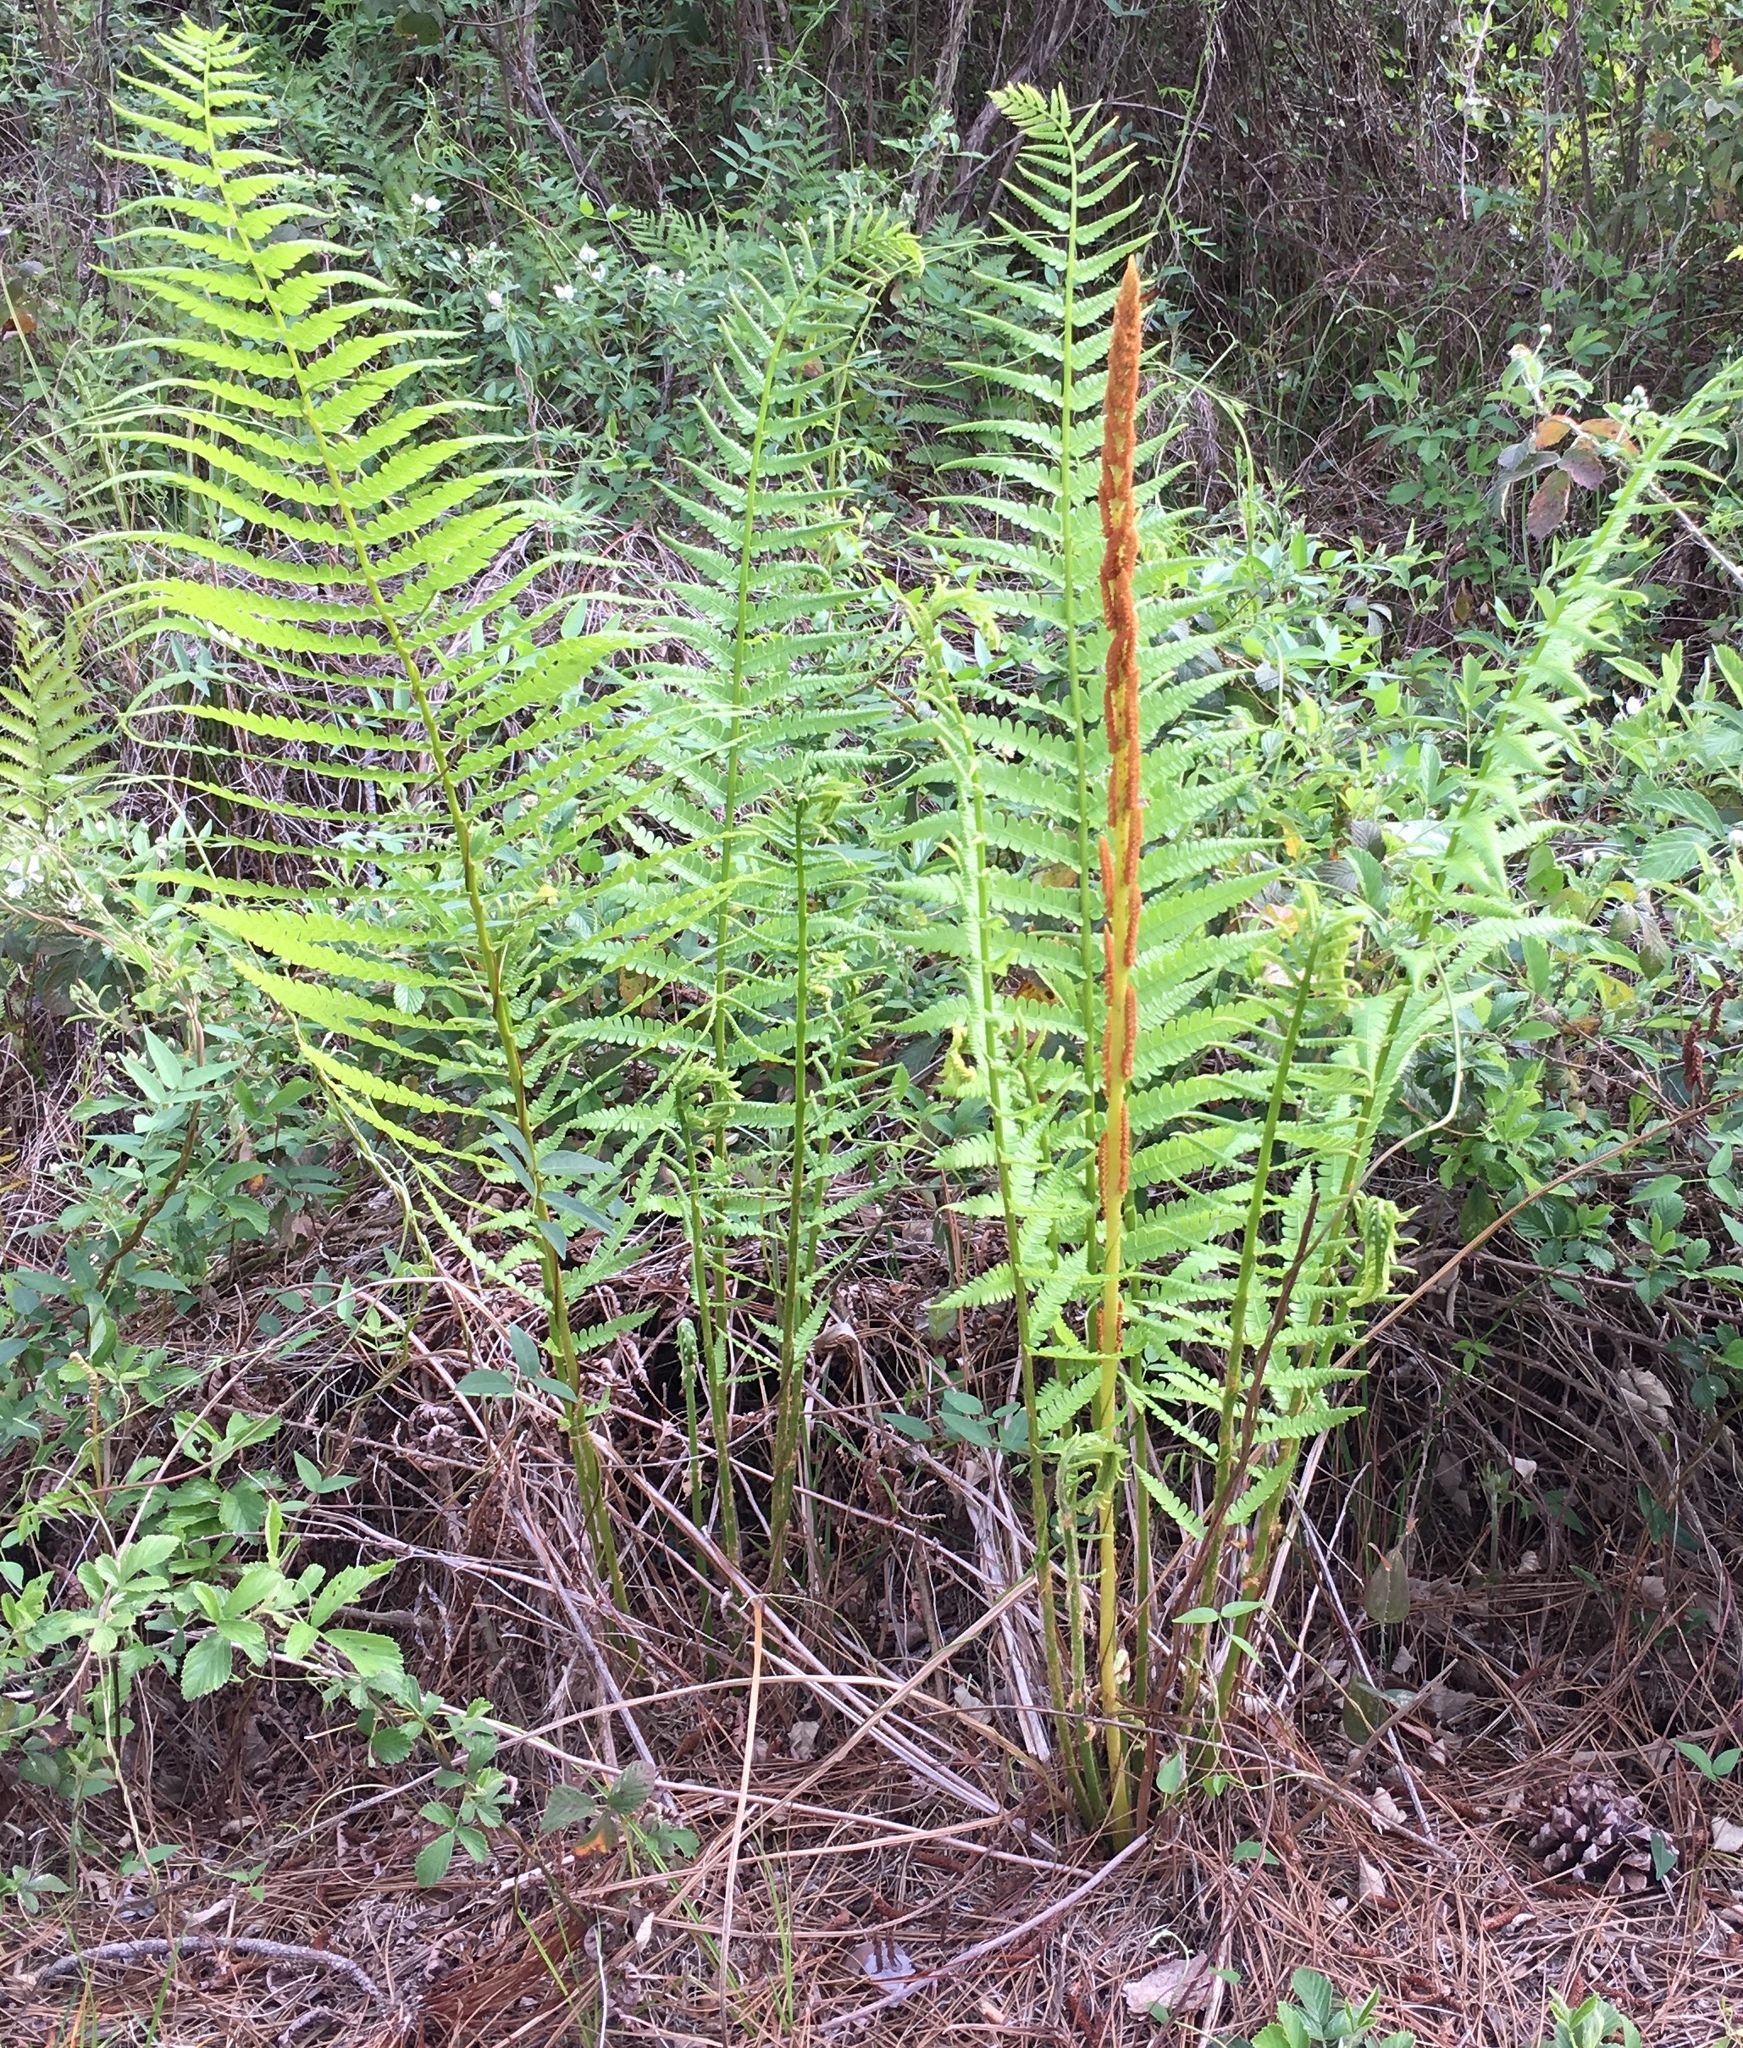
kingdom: Plantae
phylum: Tracheophyta
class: Polypodiopsida
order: Osmundales
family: Osmundaceae
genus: Osmundastrum
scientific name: Osmundastrum cinnamomeum
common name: Cinnamon fern
